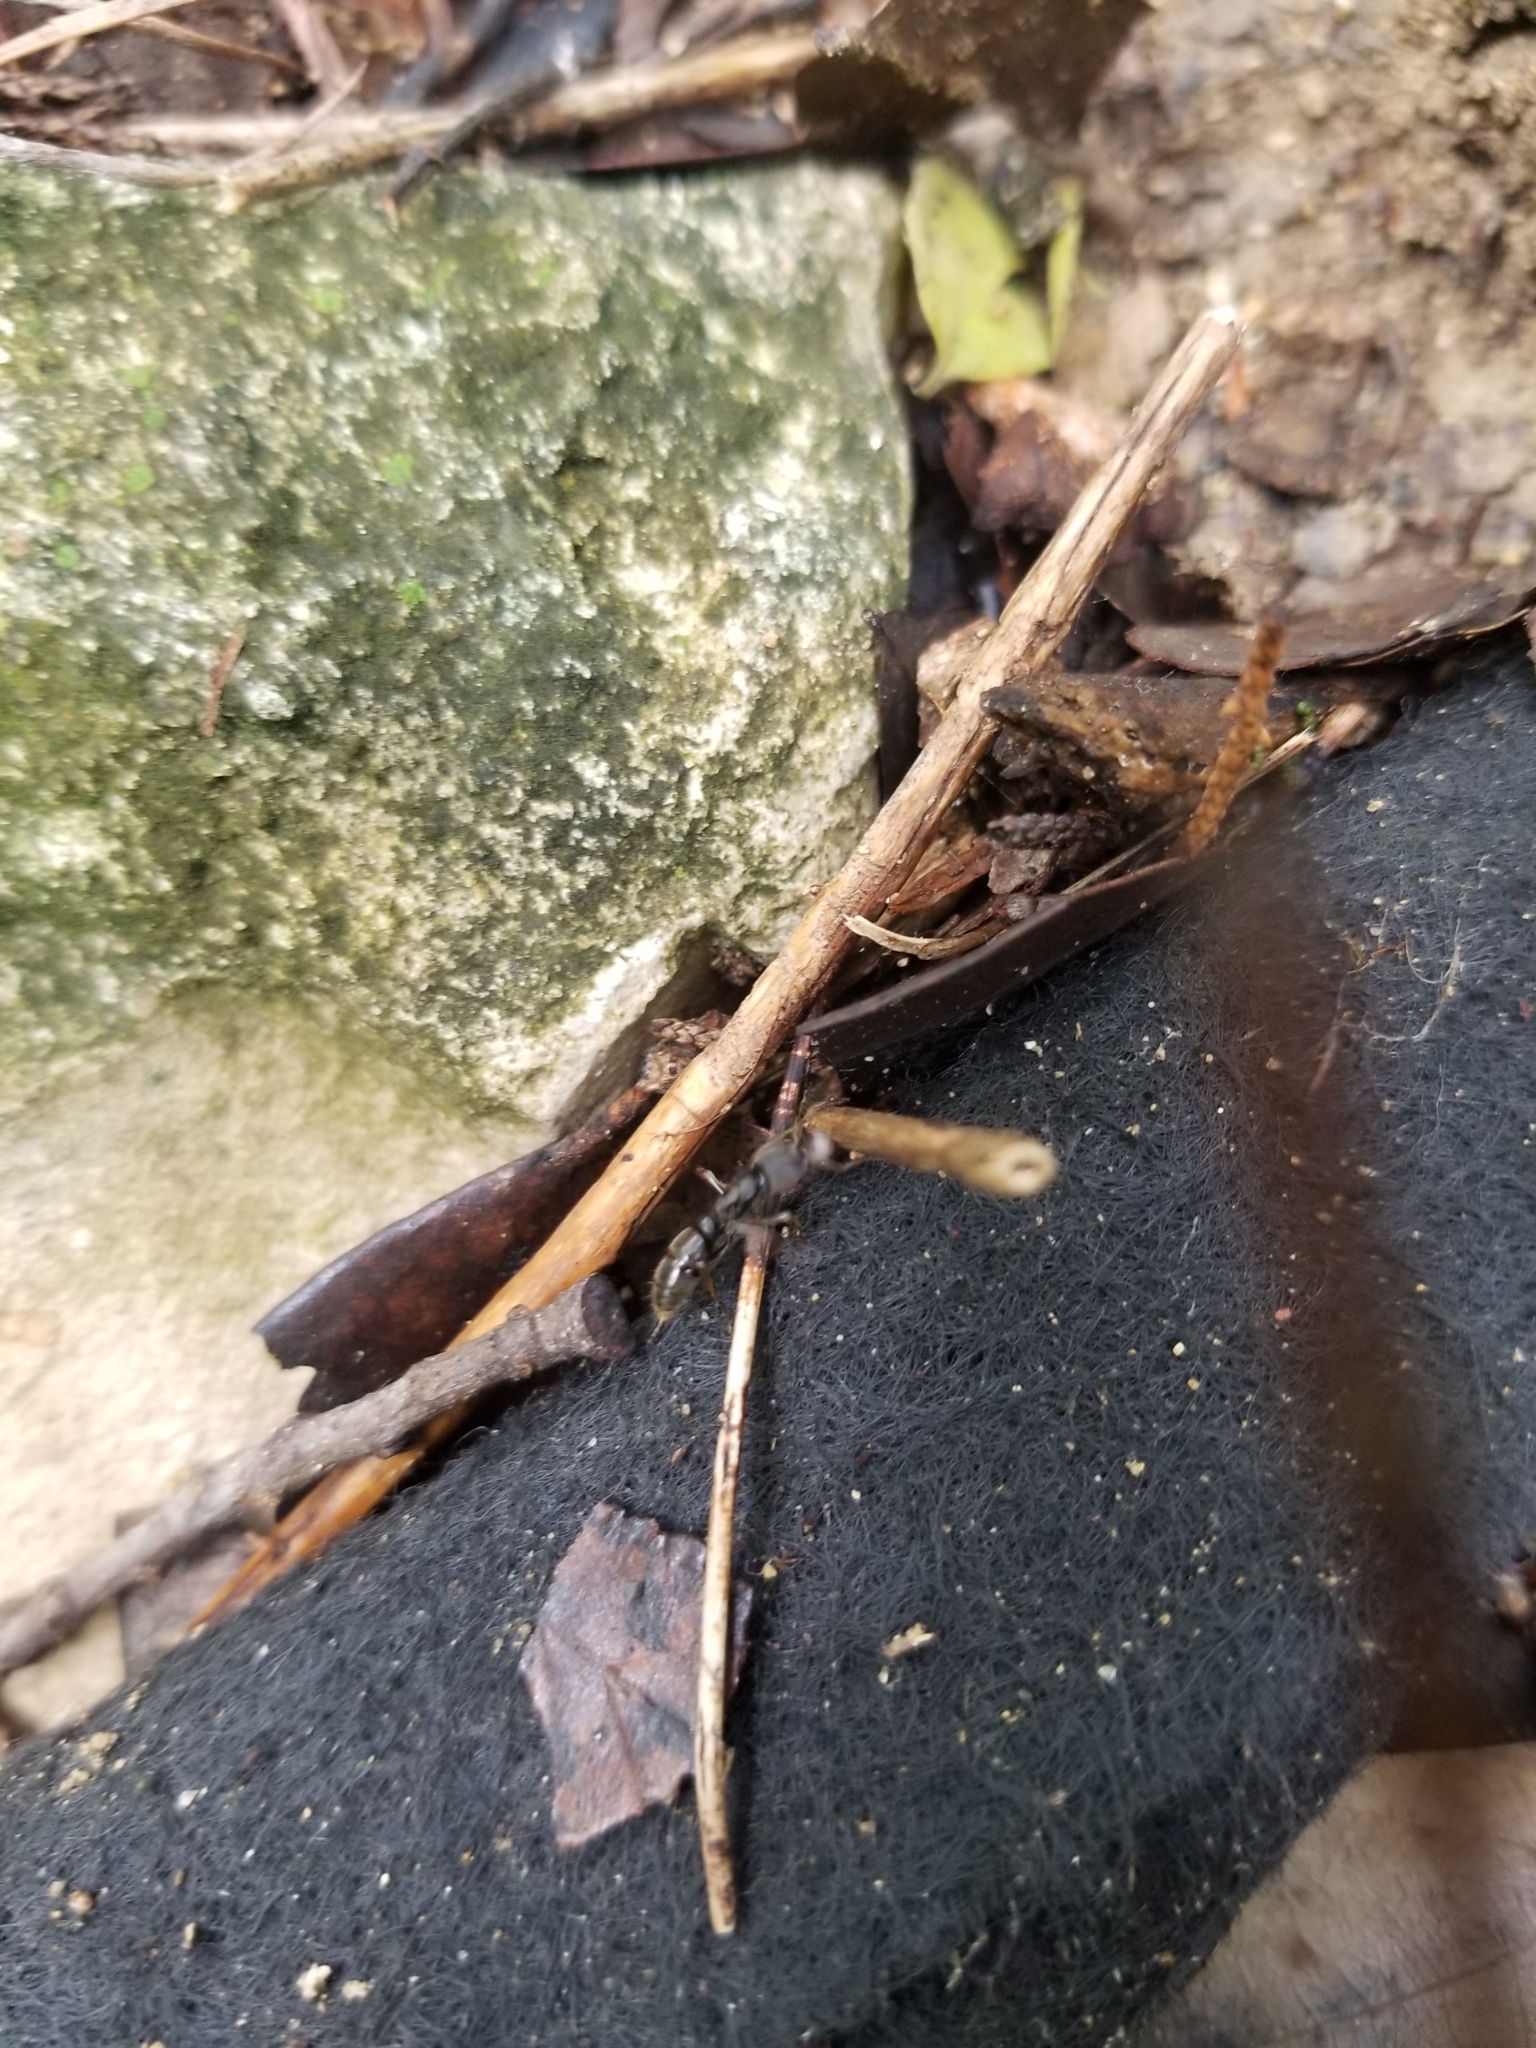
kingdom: Animalia
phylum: Arthropoda
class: Insecta
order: Hymenoptera
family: Formicidae
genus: Pachycondyla
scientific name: Pachycondyla harpax
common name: Ant
